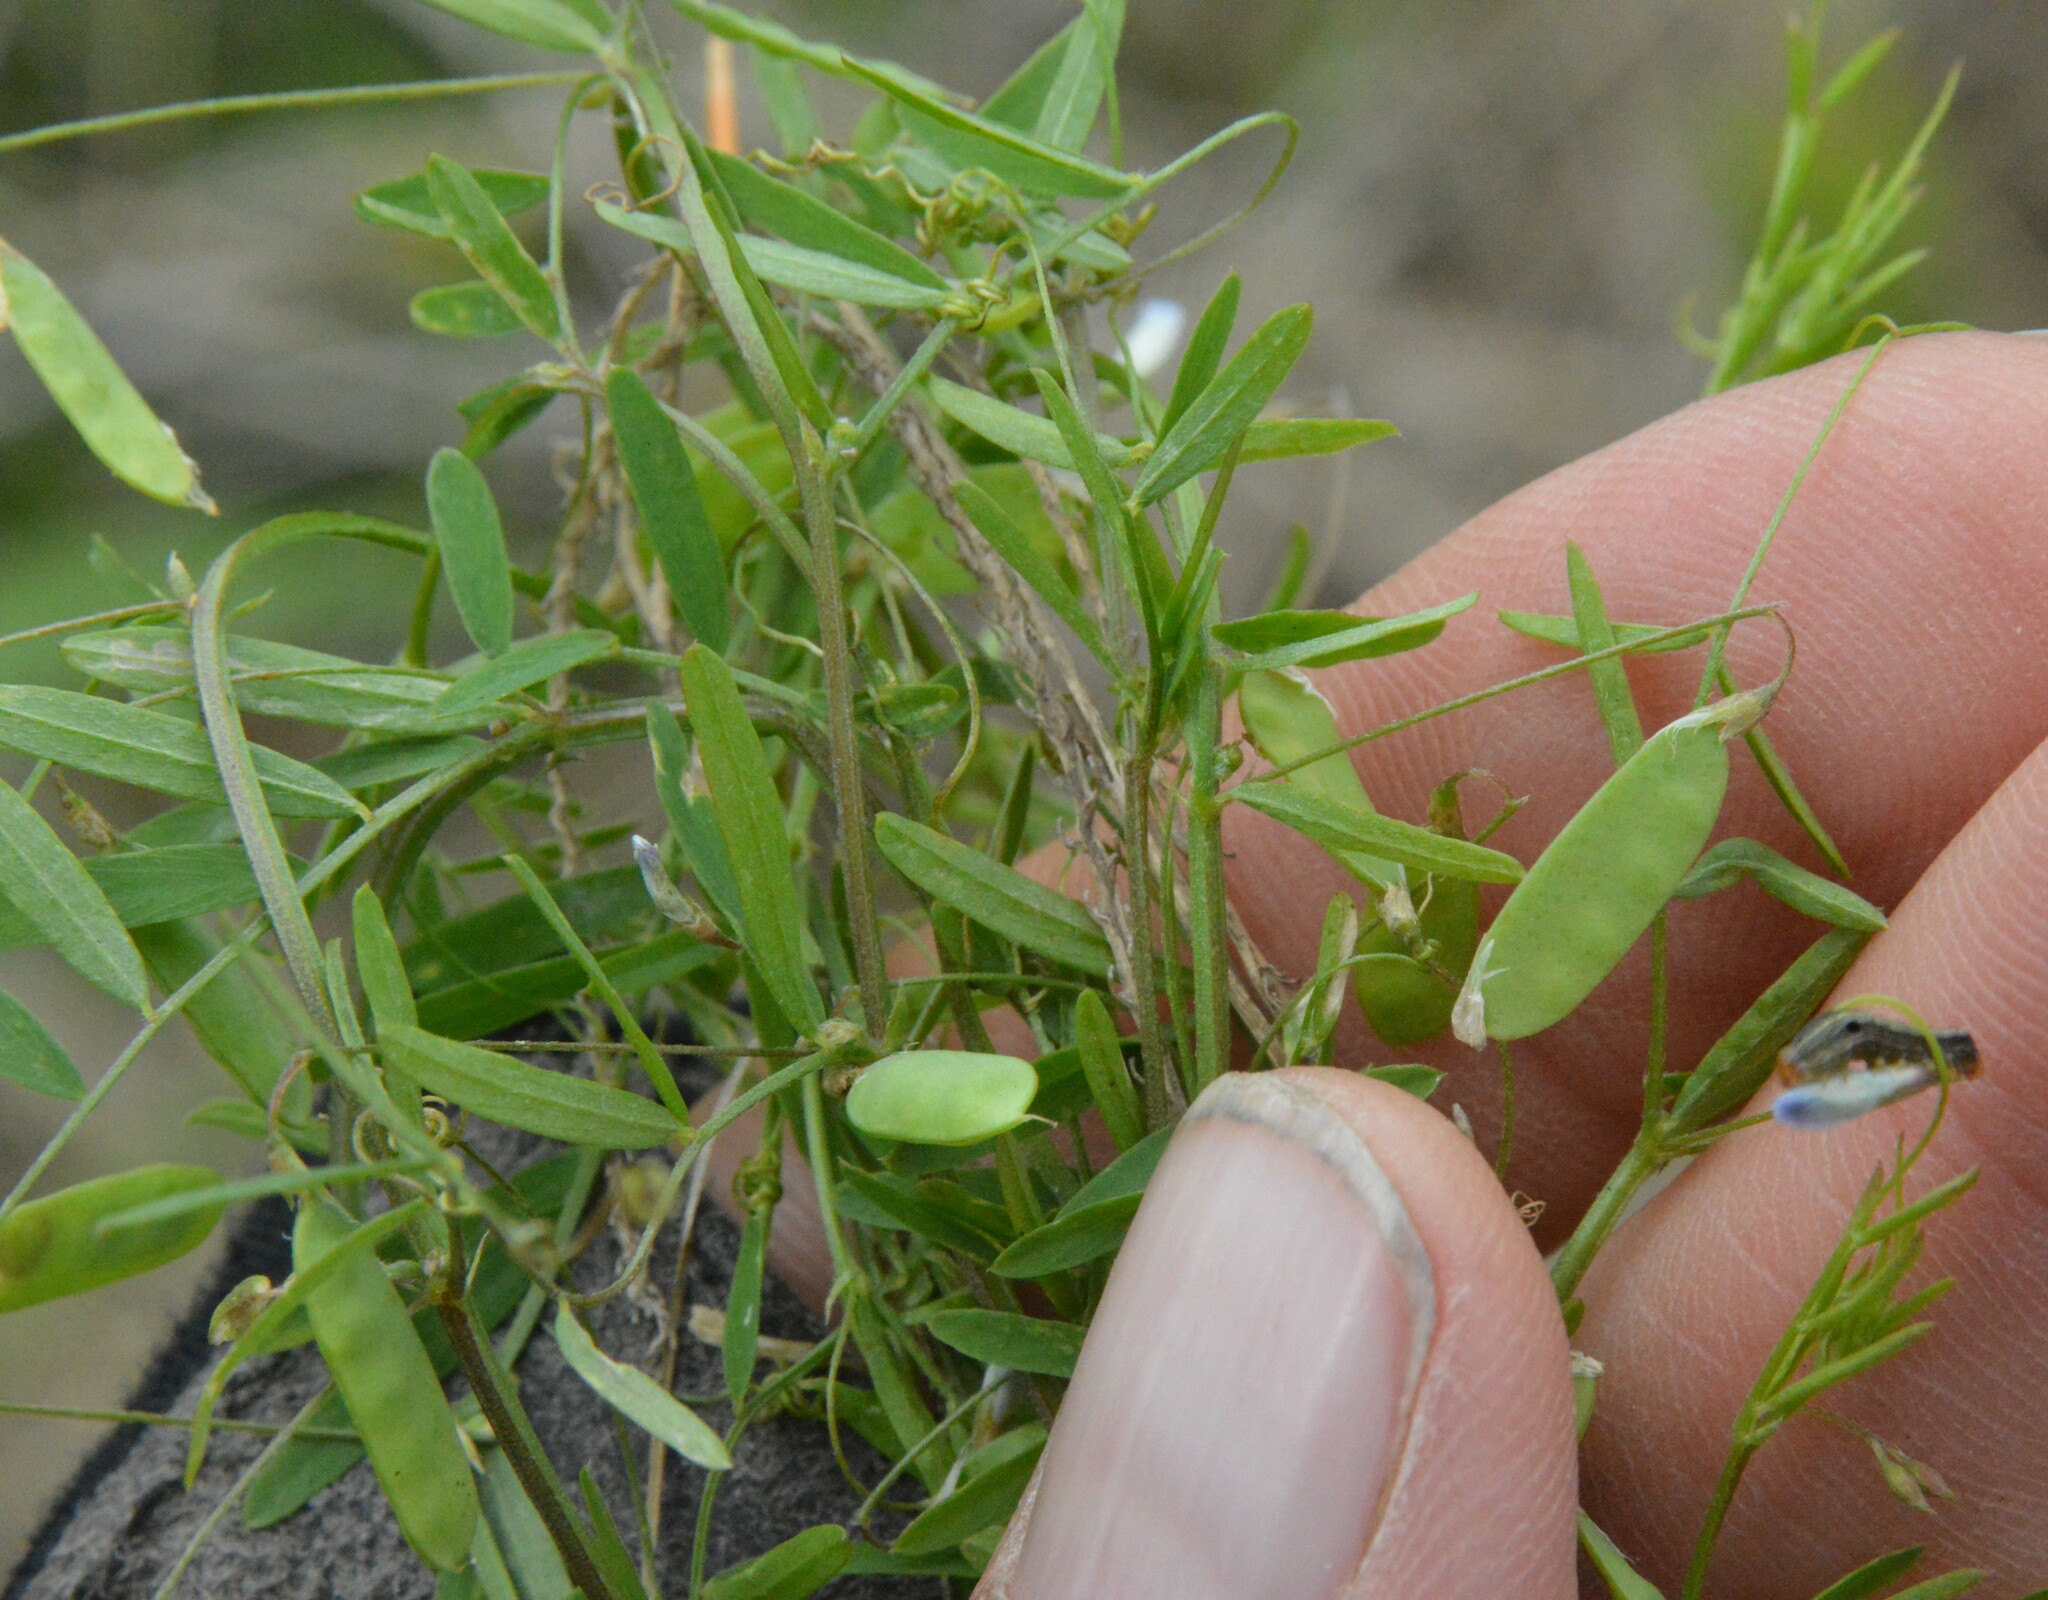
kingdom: Plantae
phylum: Tracheophyta
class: Magnoliopsida
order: Fabales
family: Fabaceae
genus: Vicia
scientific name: Vicia tetrasperma
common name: Smooth tare
